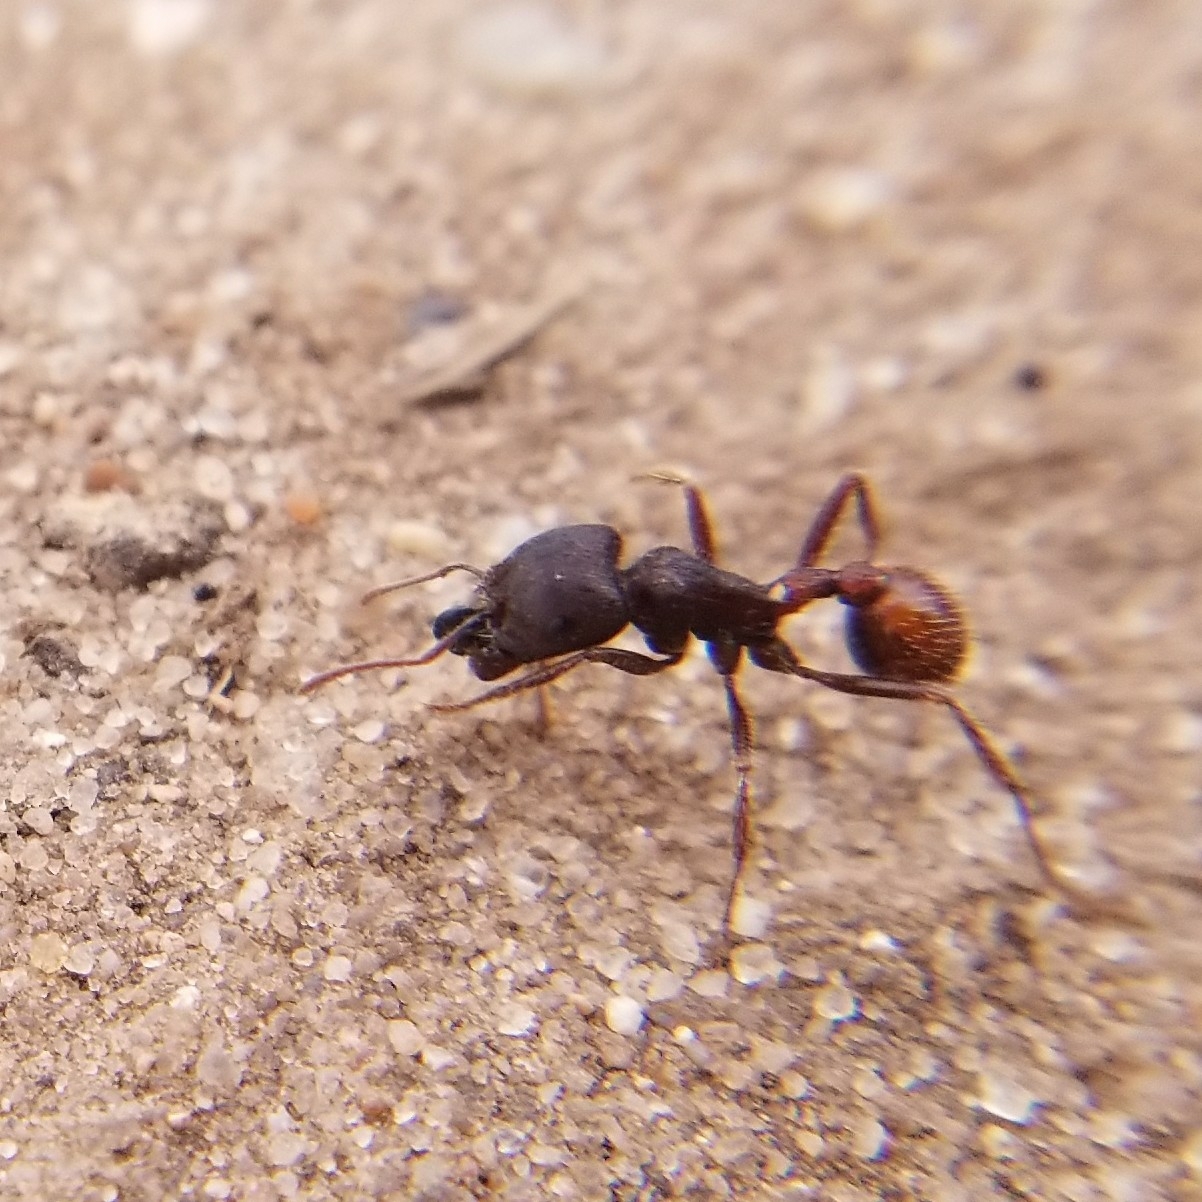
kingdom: Animalia
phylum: Arthropoda
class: Insecta
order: Hymenoptera
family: Formicidae
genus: Pogonomyrmex
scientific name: Pogonomyrmex rugosus
